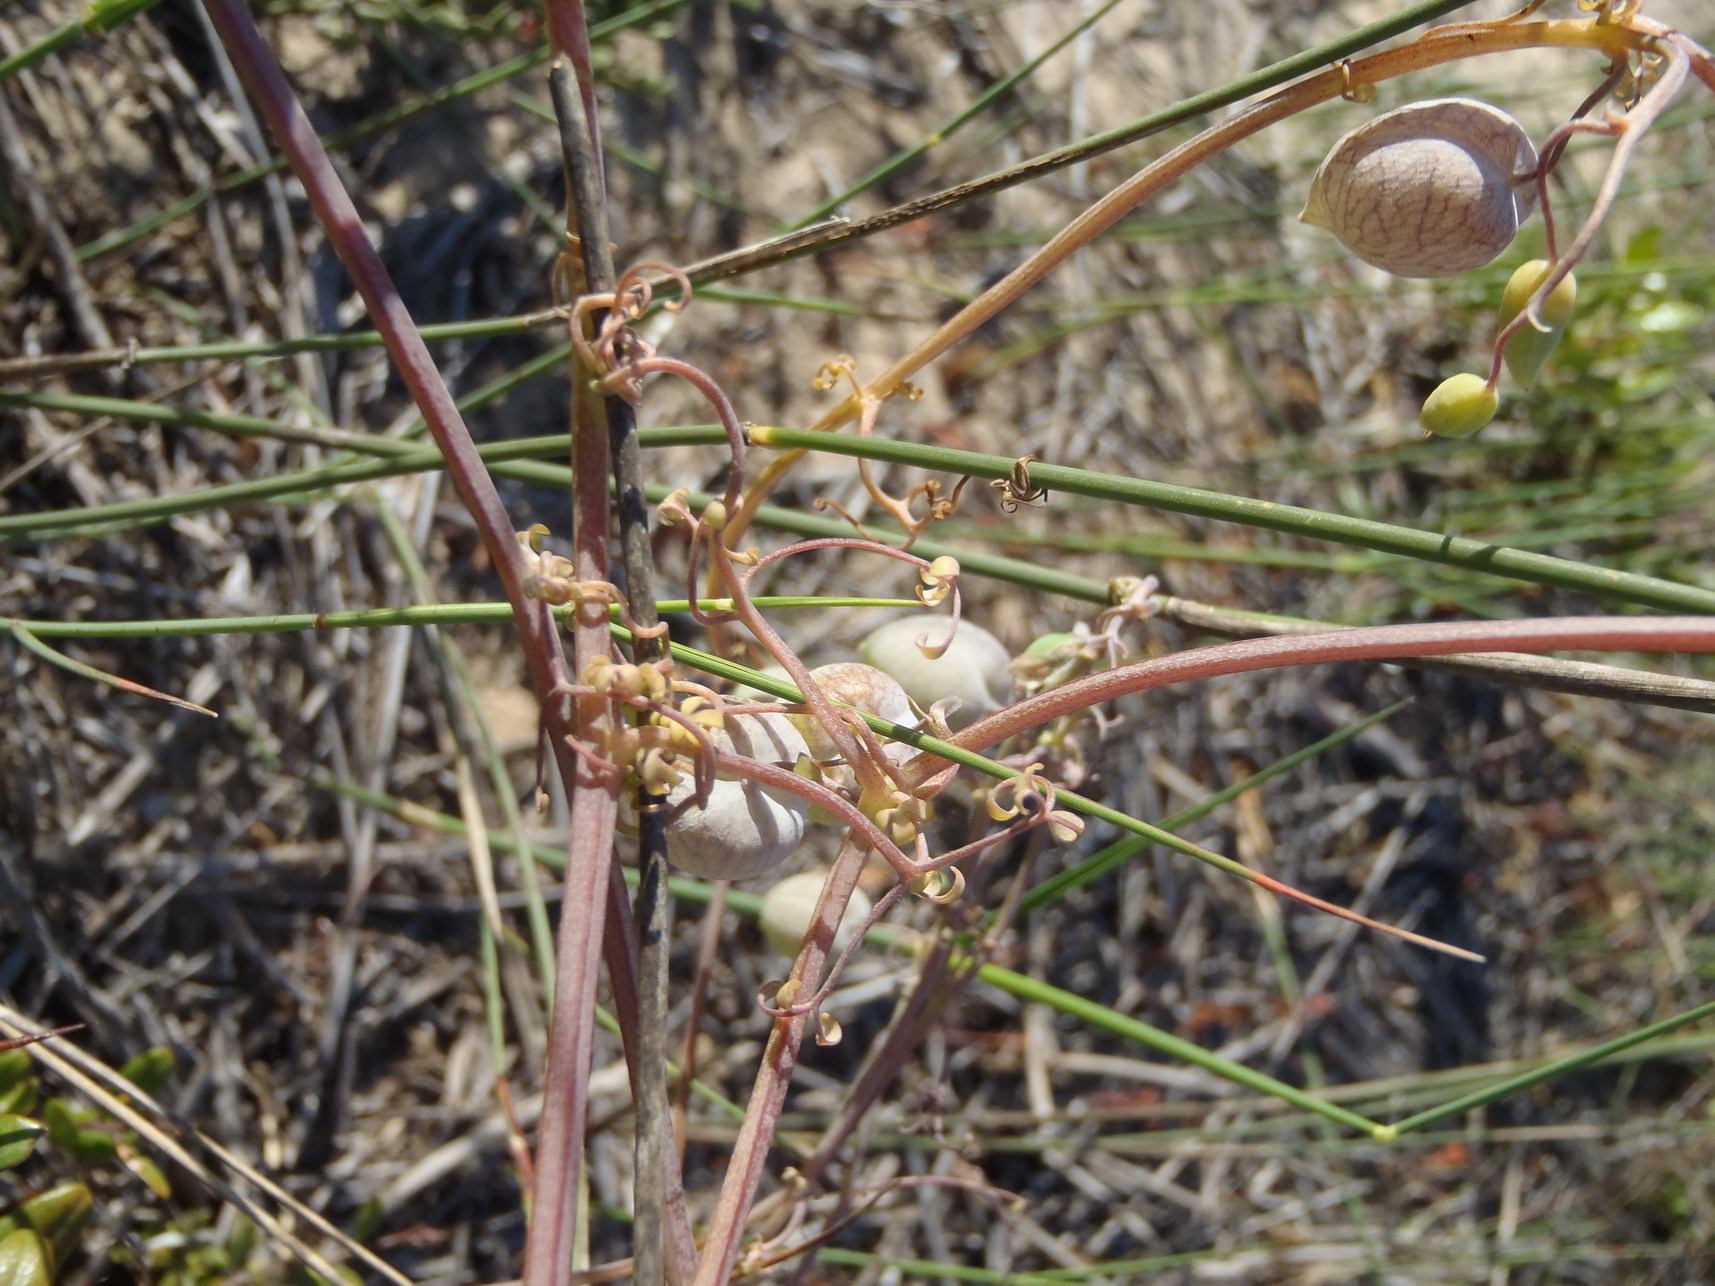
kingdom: Plantae
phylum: Tracheophyta
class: Magnoliopsida
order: Ranunculales
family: Papaveraceae
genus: Cysticapnos
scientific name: Cysticapnos vesicaria
